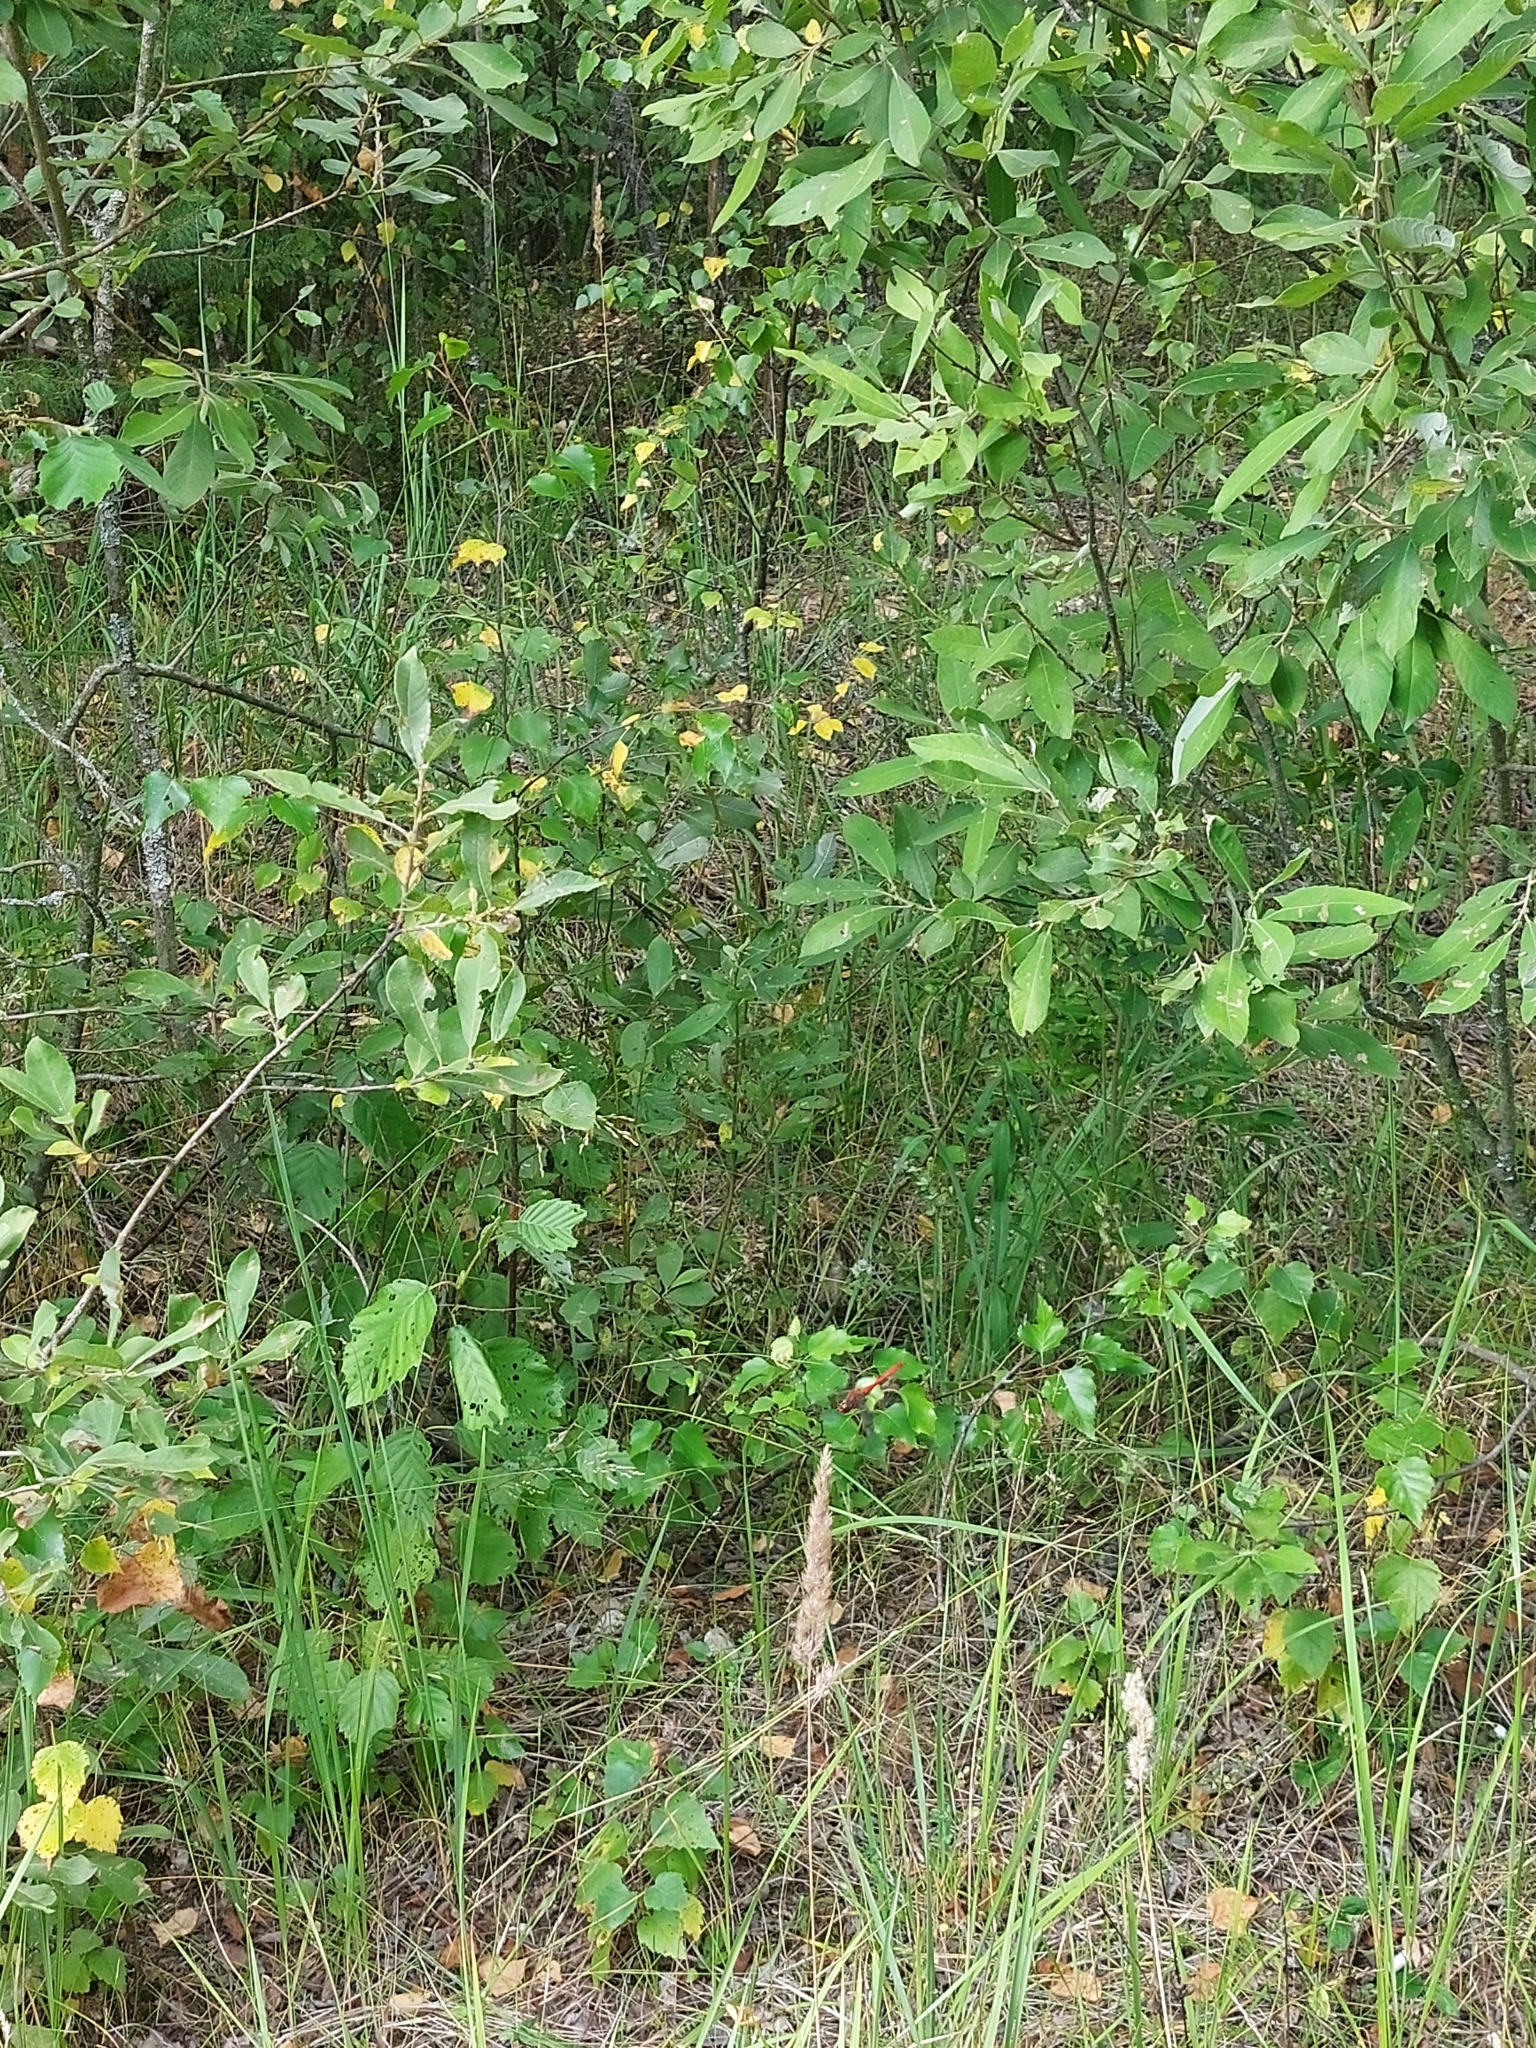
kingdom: Animalia
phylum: Arthropoda
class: Insecta
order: Odonata
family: Libellulidae
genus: Sympetrum
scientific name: Sympetrum sanguineum
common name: Ruddy darter
